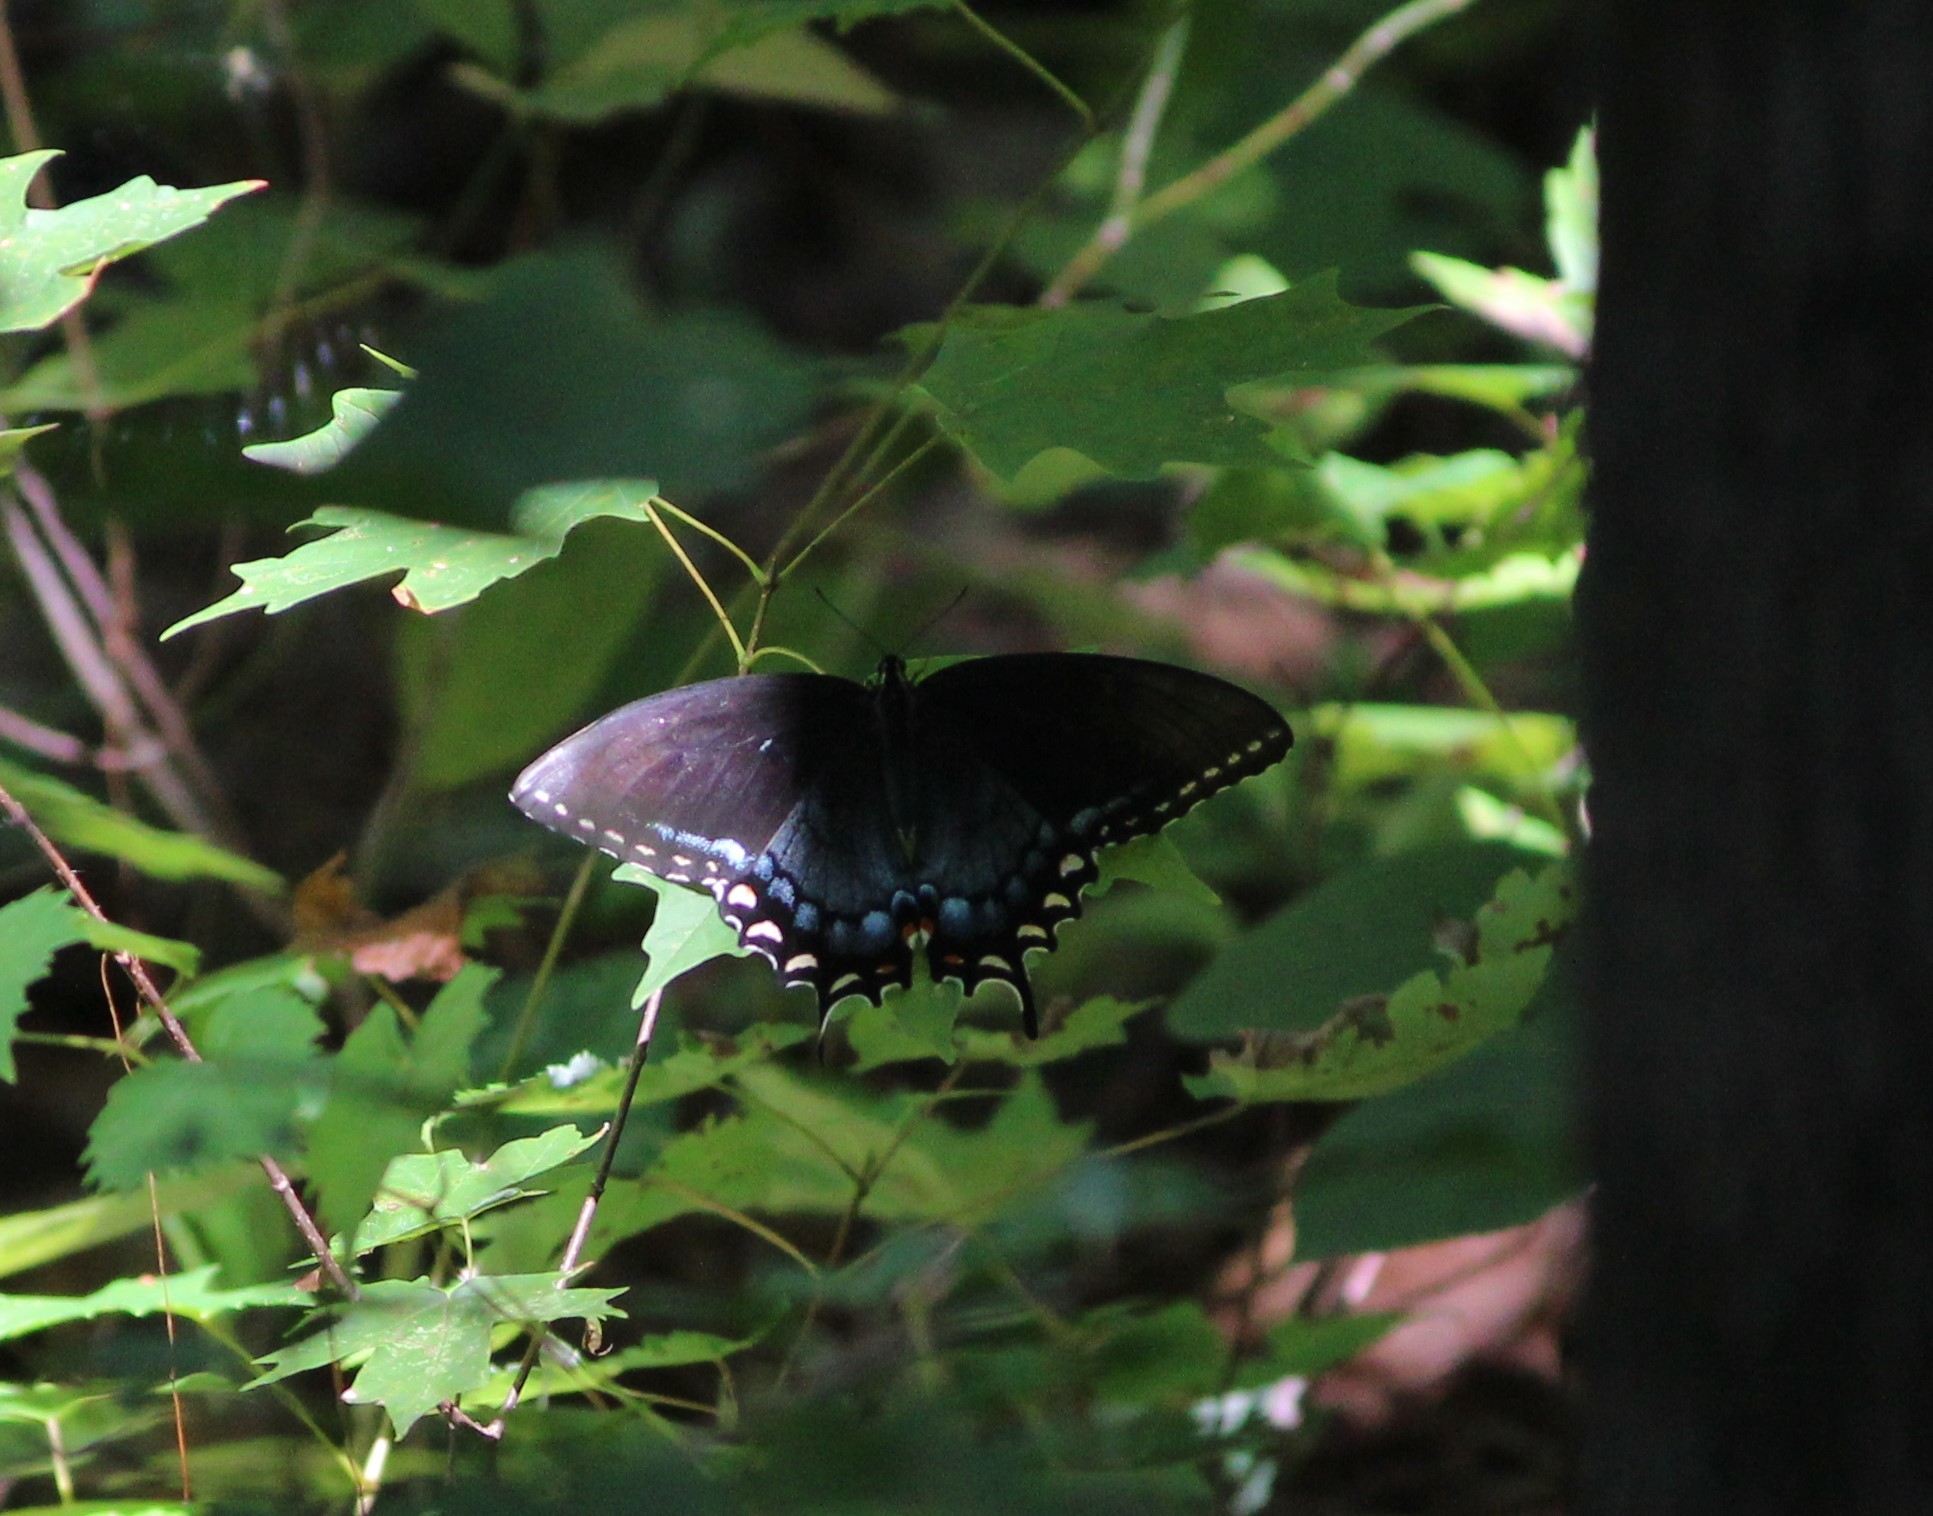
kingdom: Animalia
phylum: Arthropoda
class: Insecta
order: Lepidoptera
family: Papilionidae
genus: Papilio
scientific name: Papilio glaucus
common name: Tiger swallowtail
